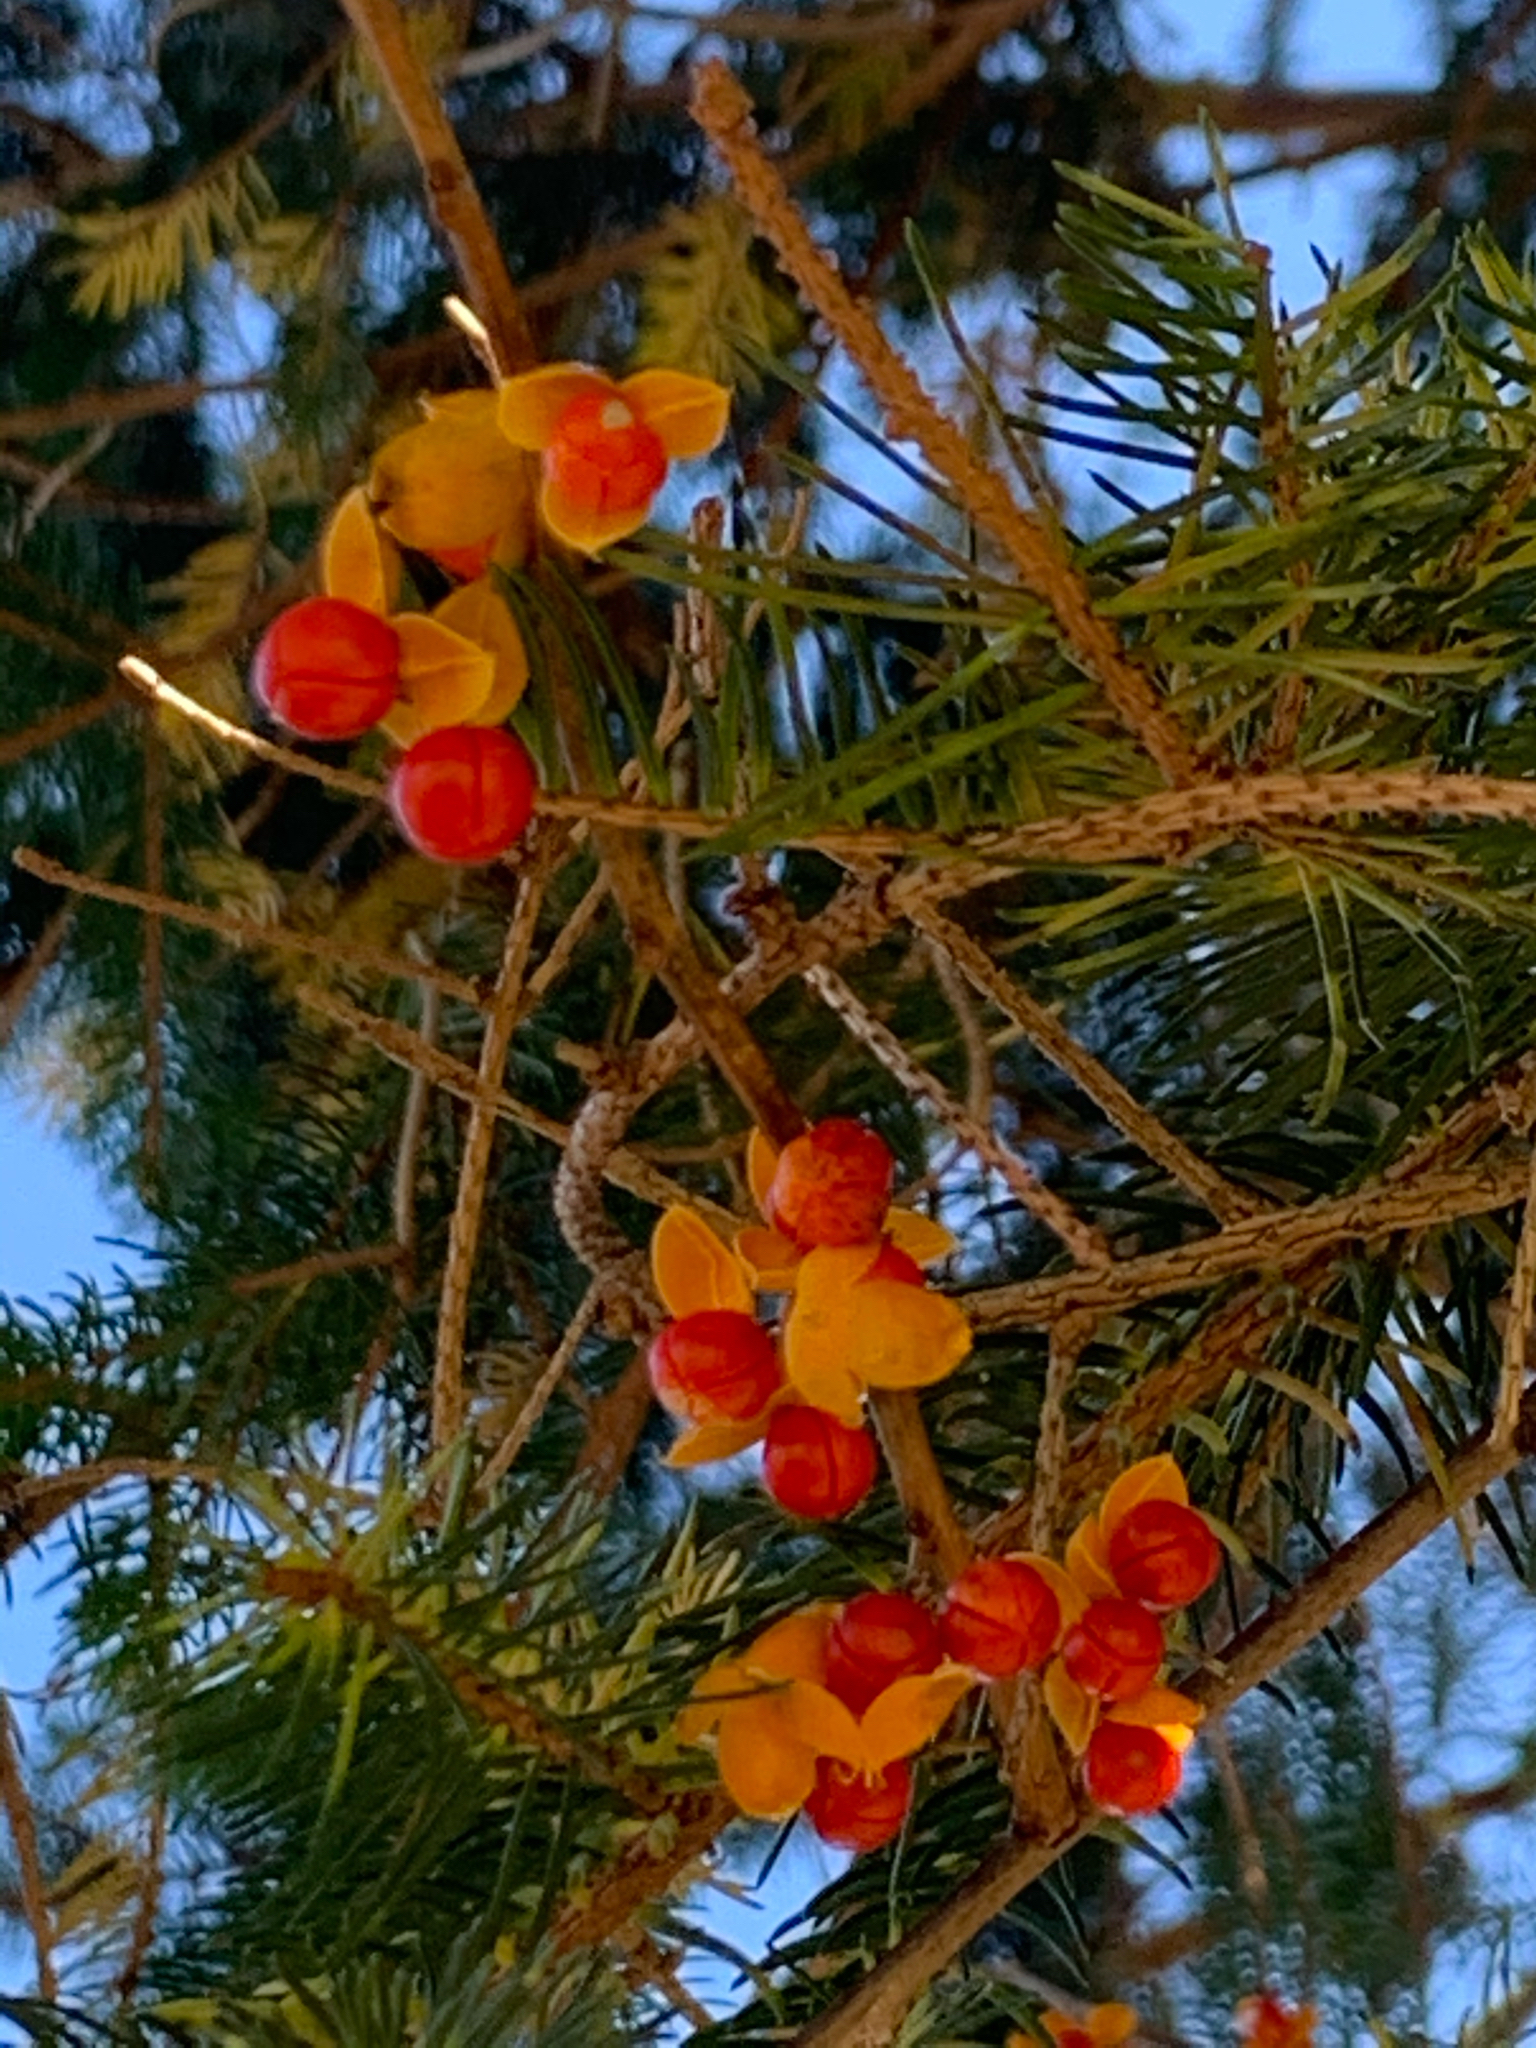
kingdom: Plantae
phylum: Tracheophyta
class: Magnoliopsida
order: Celastrales
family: Celastraceae
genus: Celastrus
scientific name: Celastrus orbiculatus
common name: Oriental bittersweet
